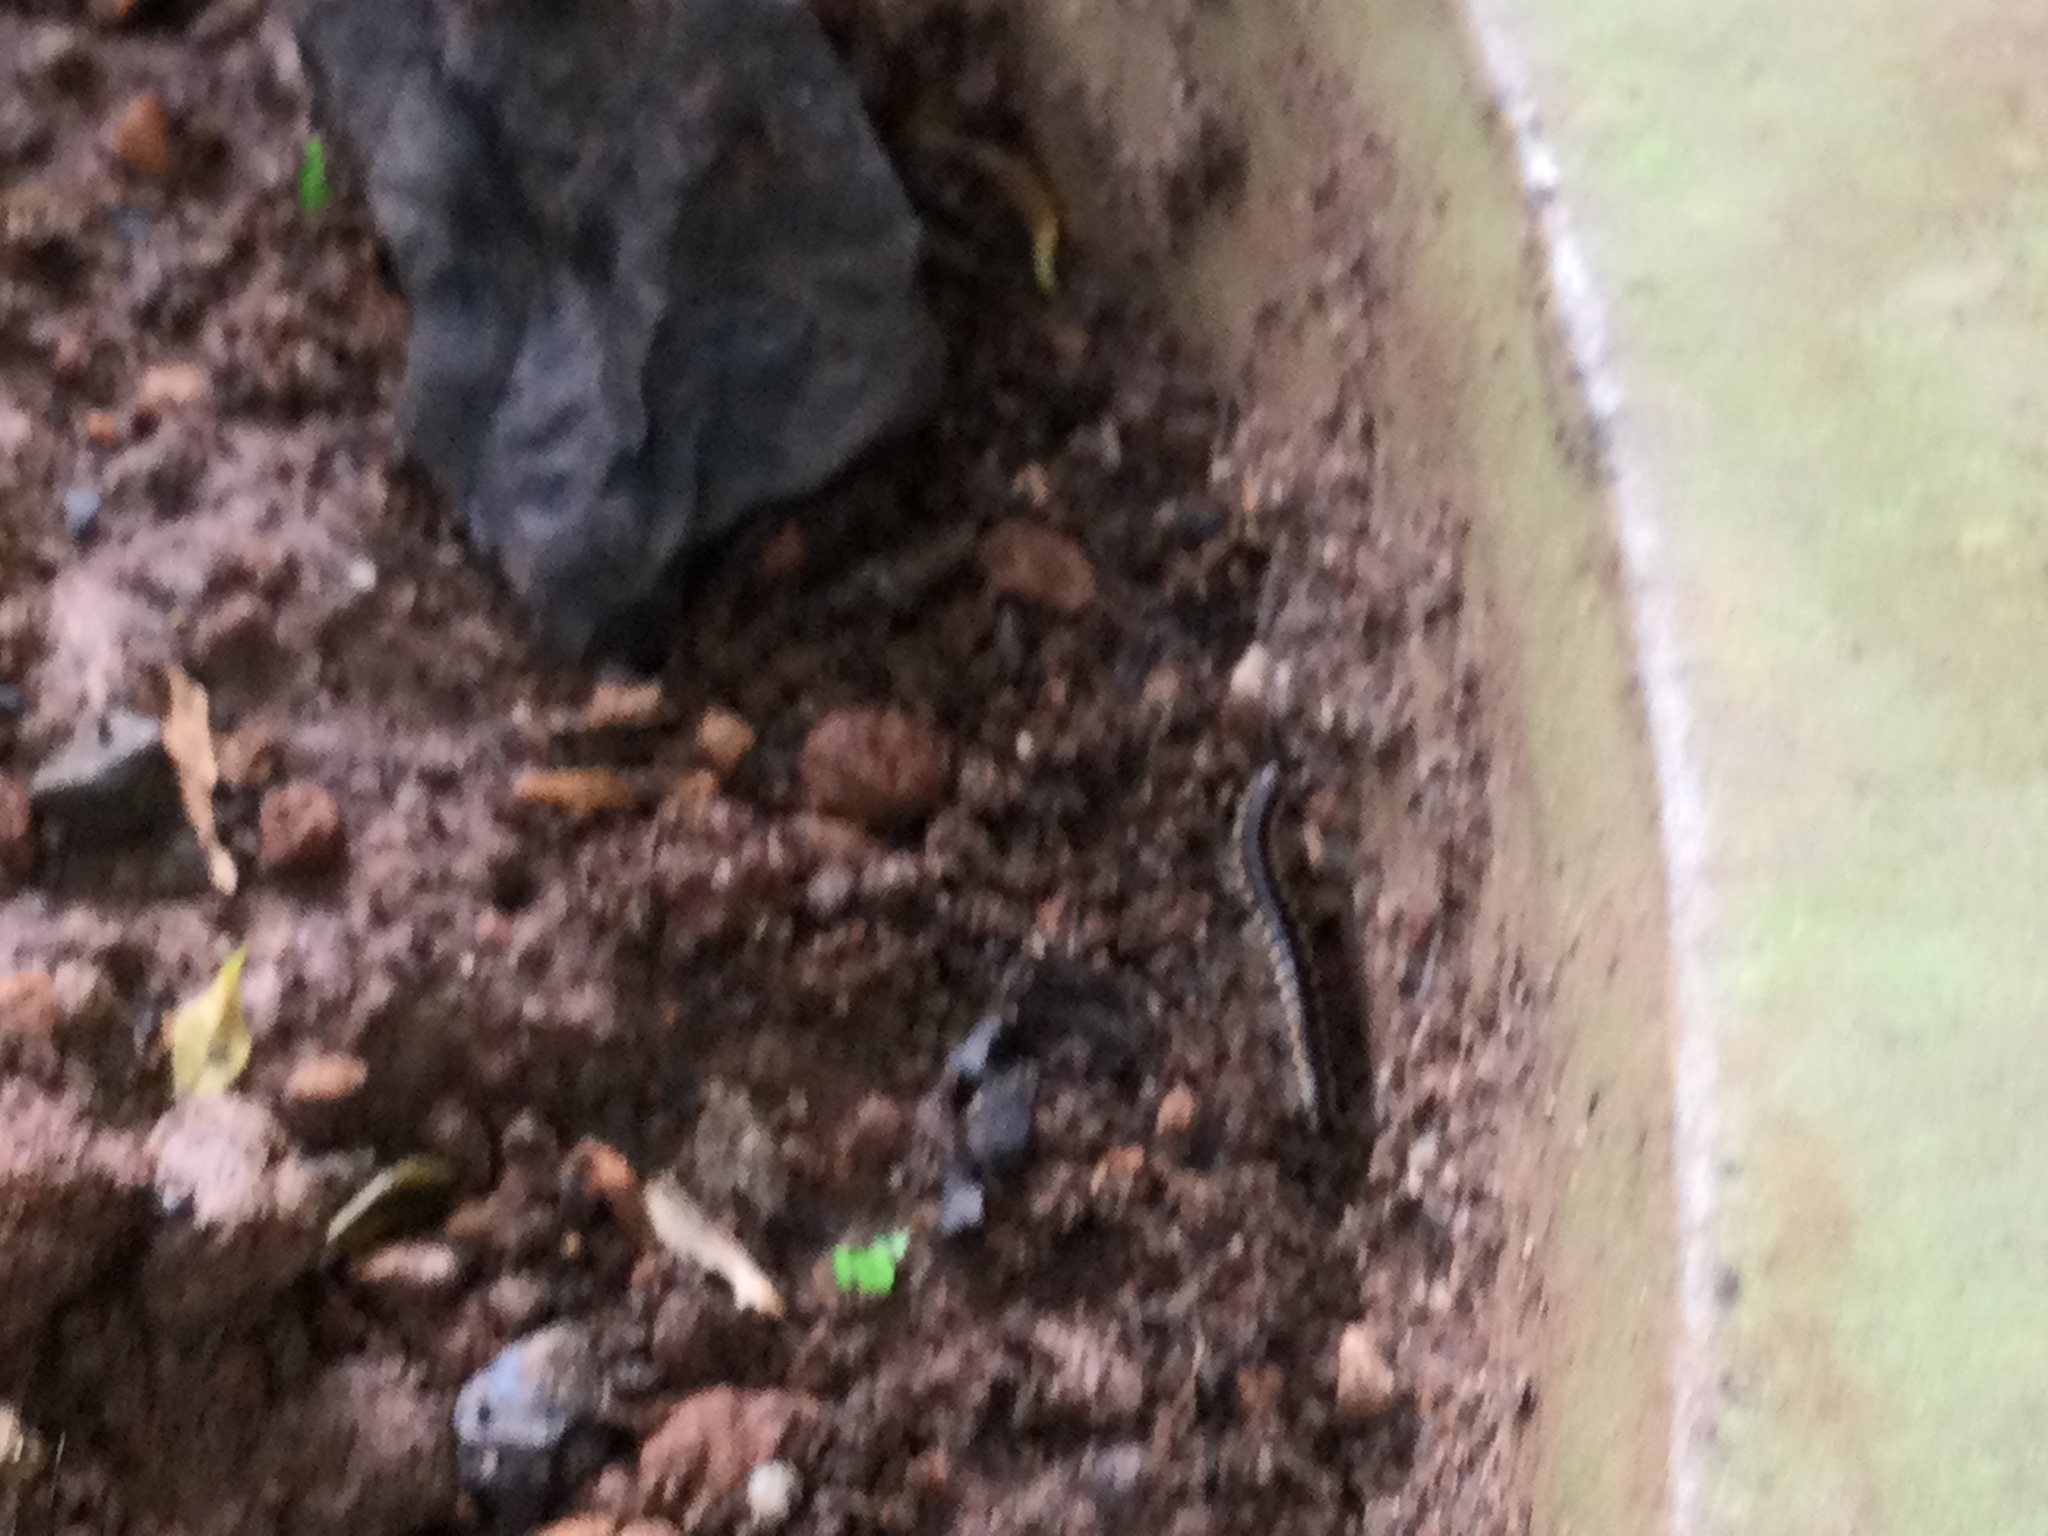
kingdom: Animalia
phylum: Arthropoda
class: Diplopoda
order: Polydesmida
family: Paradoxosomatidae
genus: Orthomorpha
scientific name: Orthomorpha coarctata
